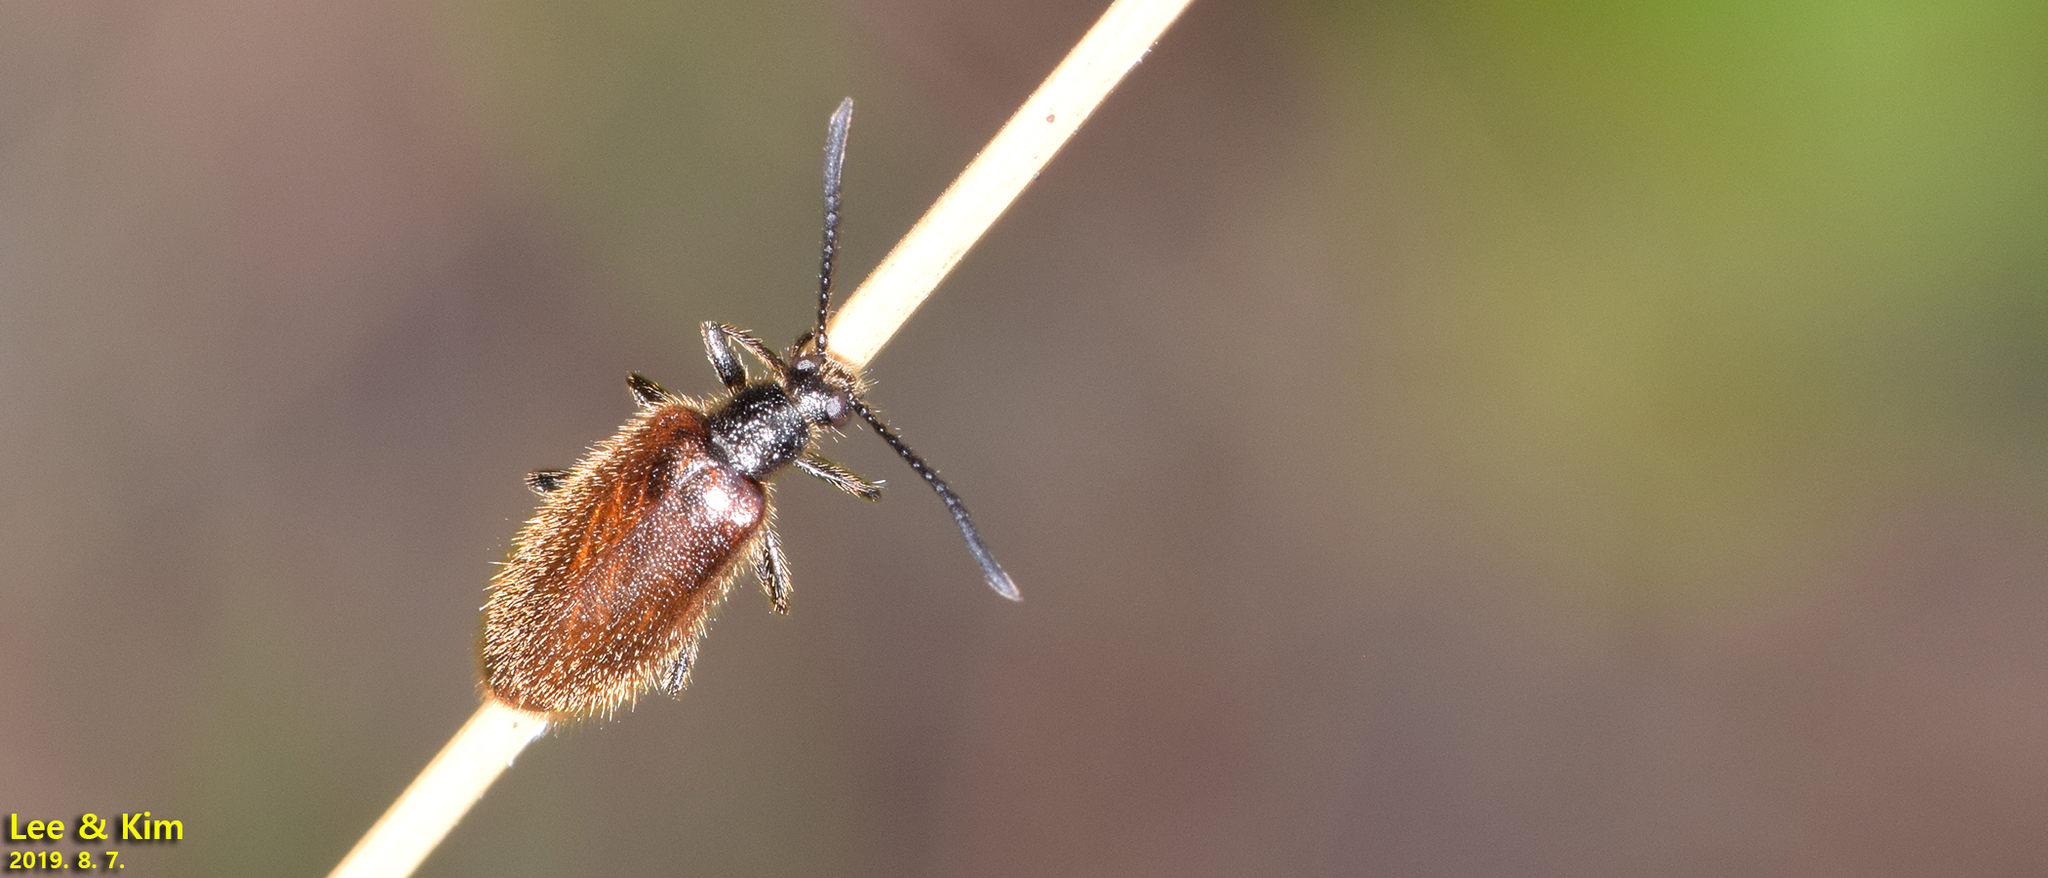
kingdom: Animalia
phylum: Arthropoda
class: Insecta
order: Coleoptera
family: Tenebrionidae
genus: Lagria
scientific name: Lagria nigricollis
